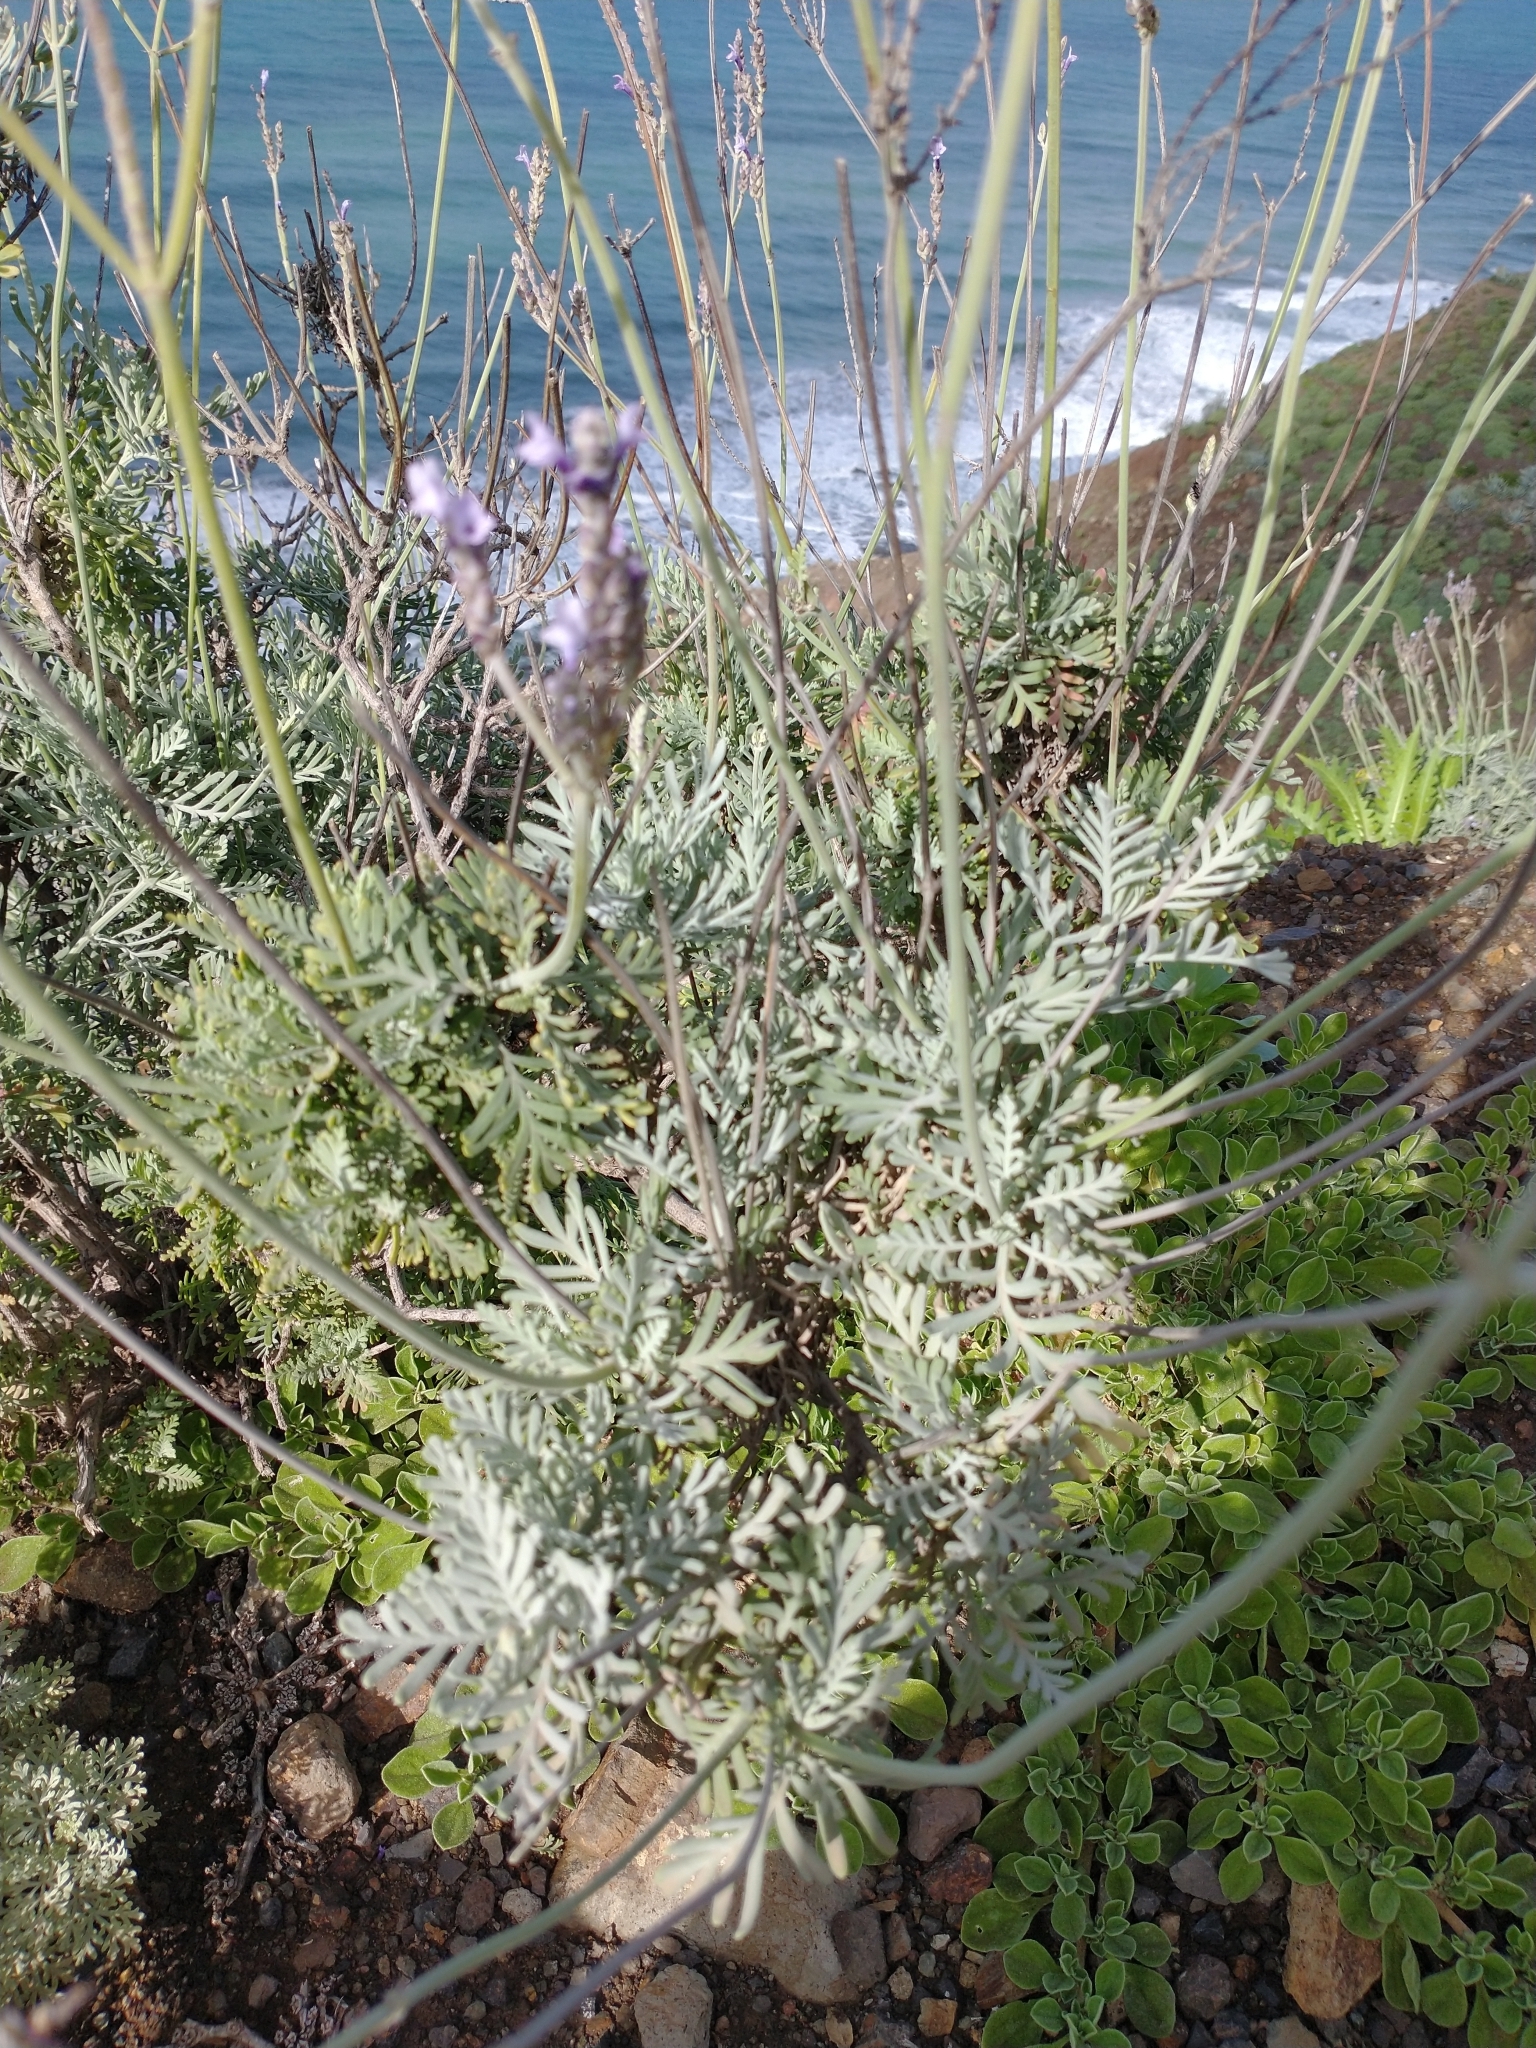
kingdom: Plantae
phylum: Tracheophyta
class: Magnoliopsida
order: Lamiales
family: Lamiaceae
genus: Lavandula
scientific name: Lavandula buchii
